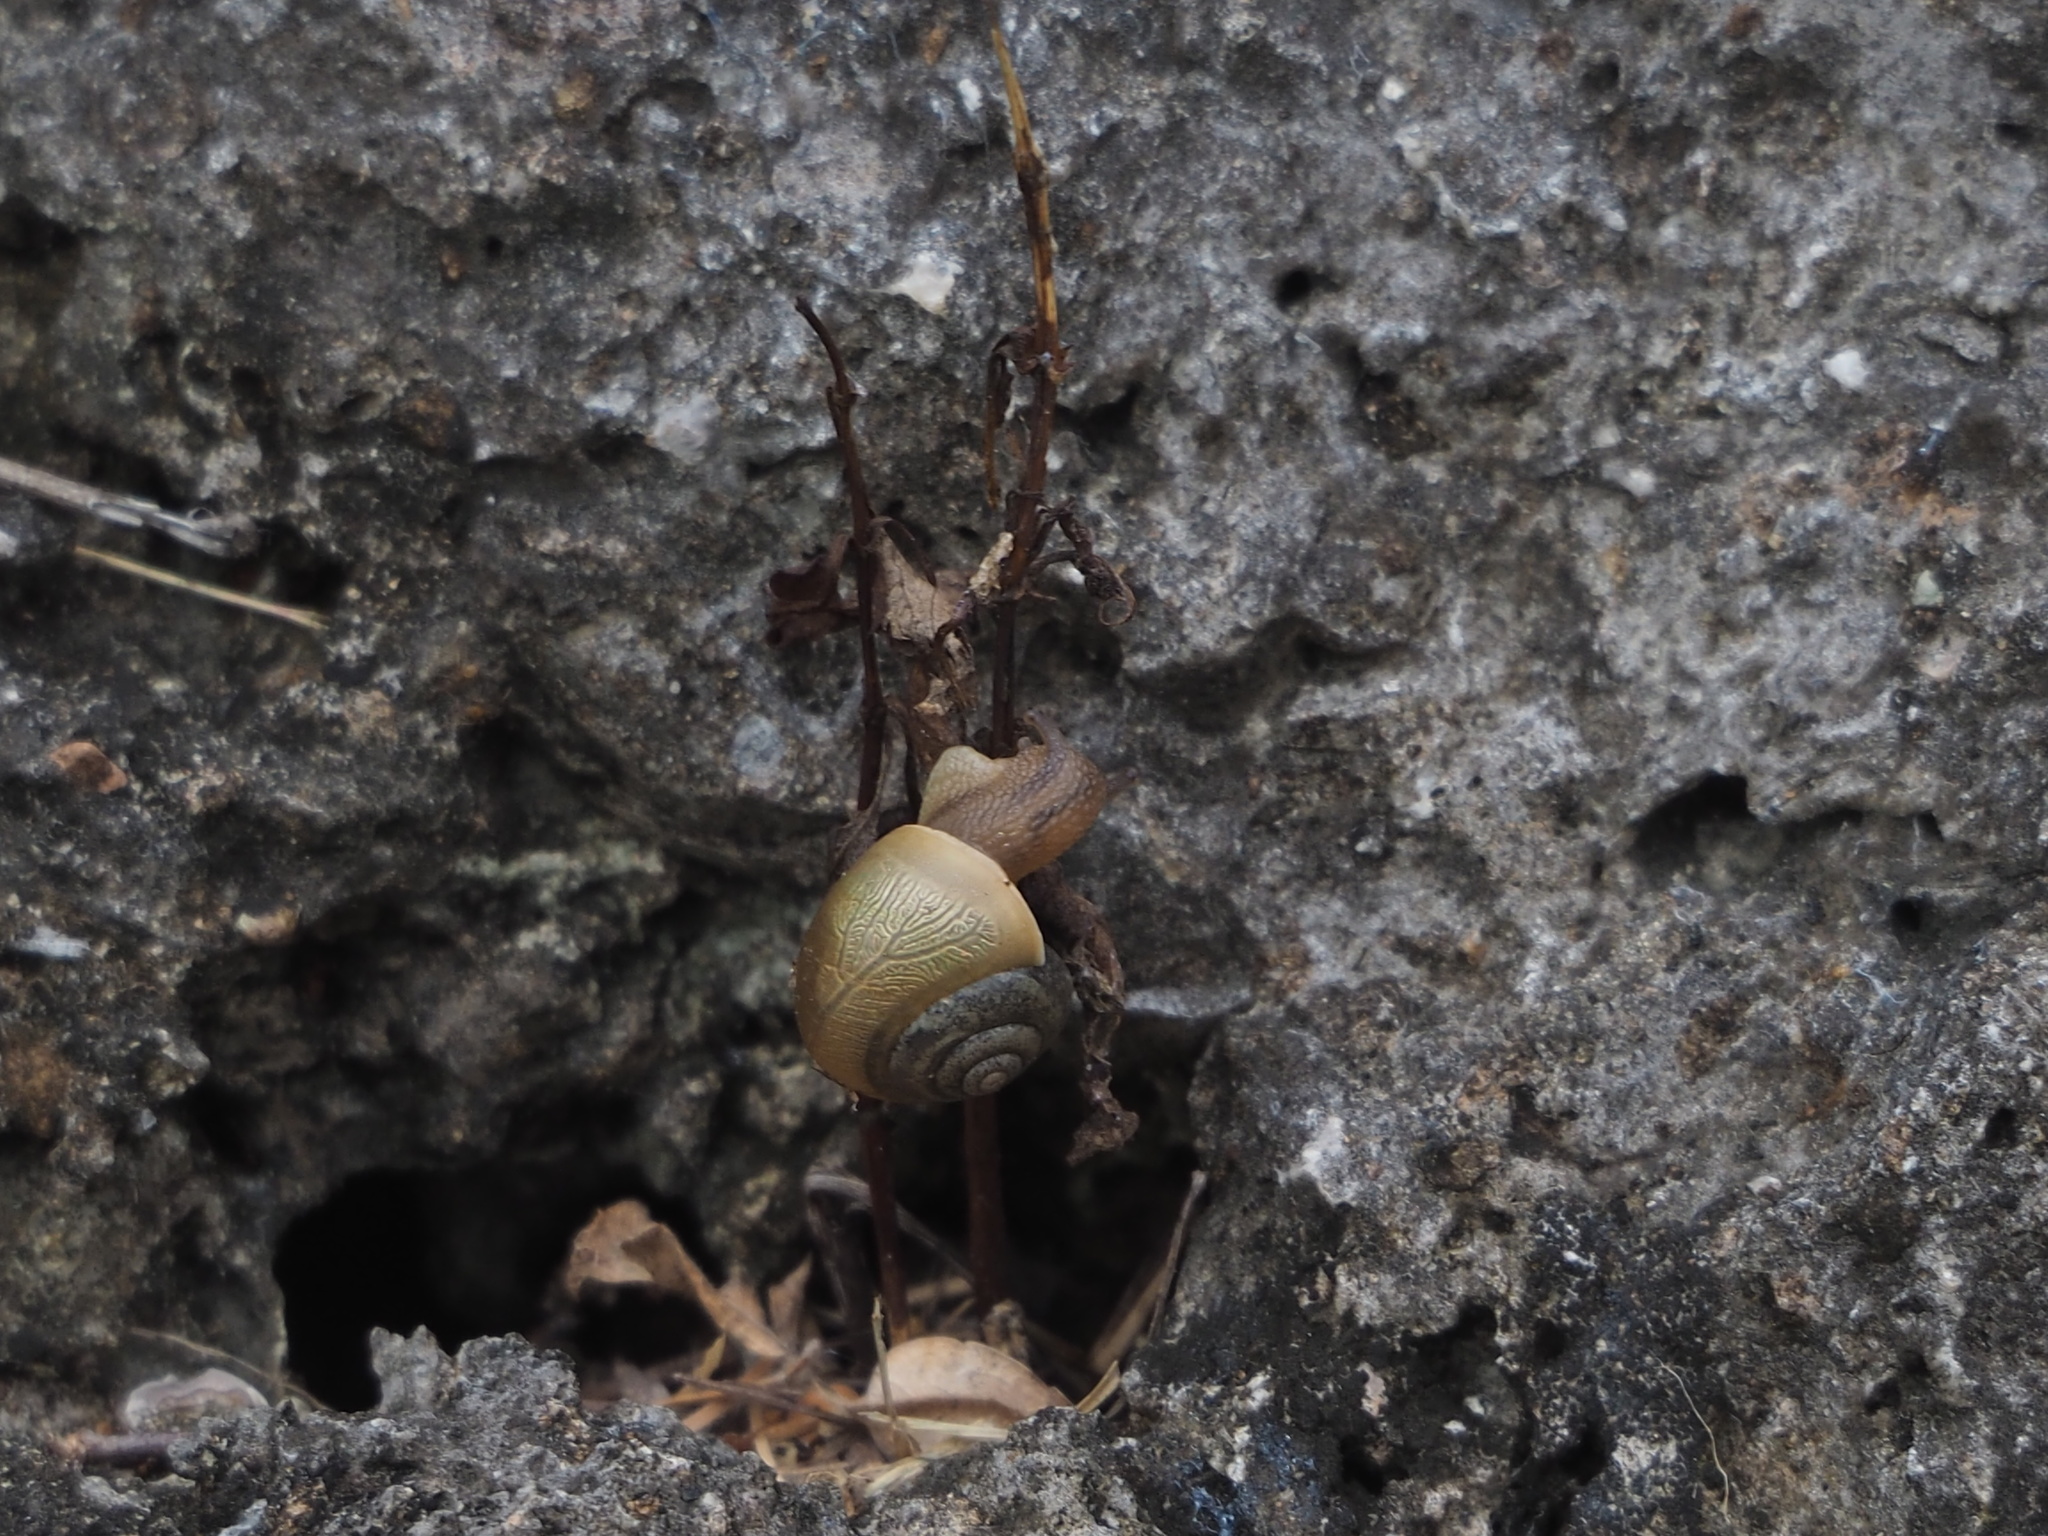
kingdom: Animalia
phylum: Mollusca
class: Gastropoda
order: Stylommatophora
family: Camaenidae
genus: Acusta
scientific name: Acusta toyenmongaiensis
